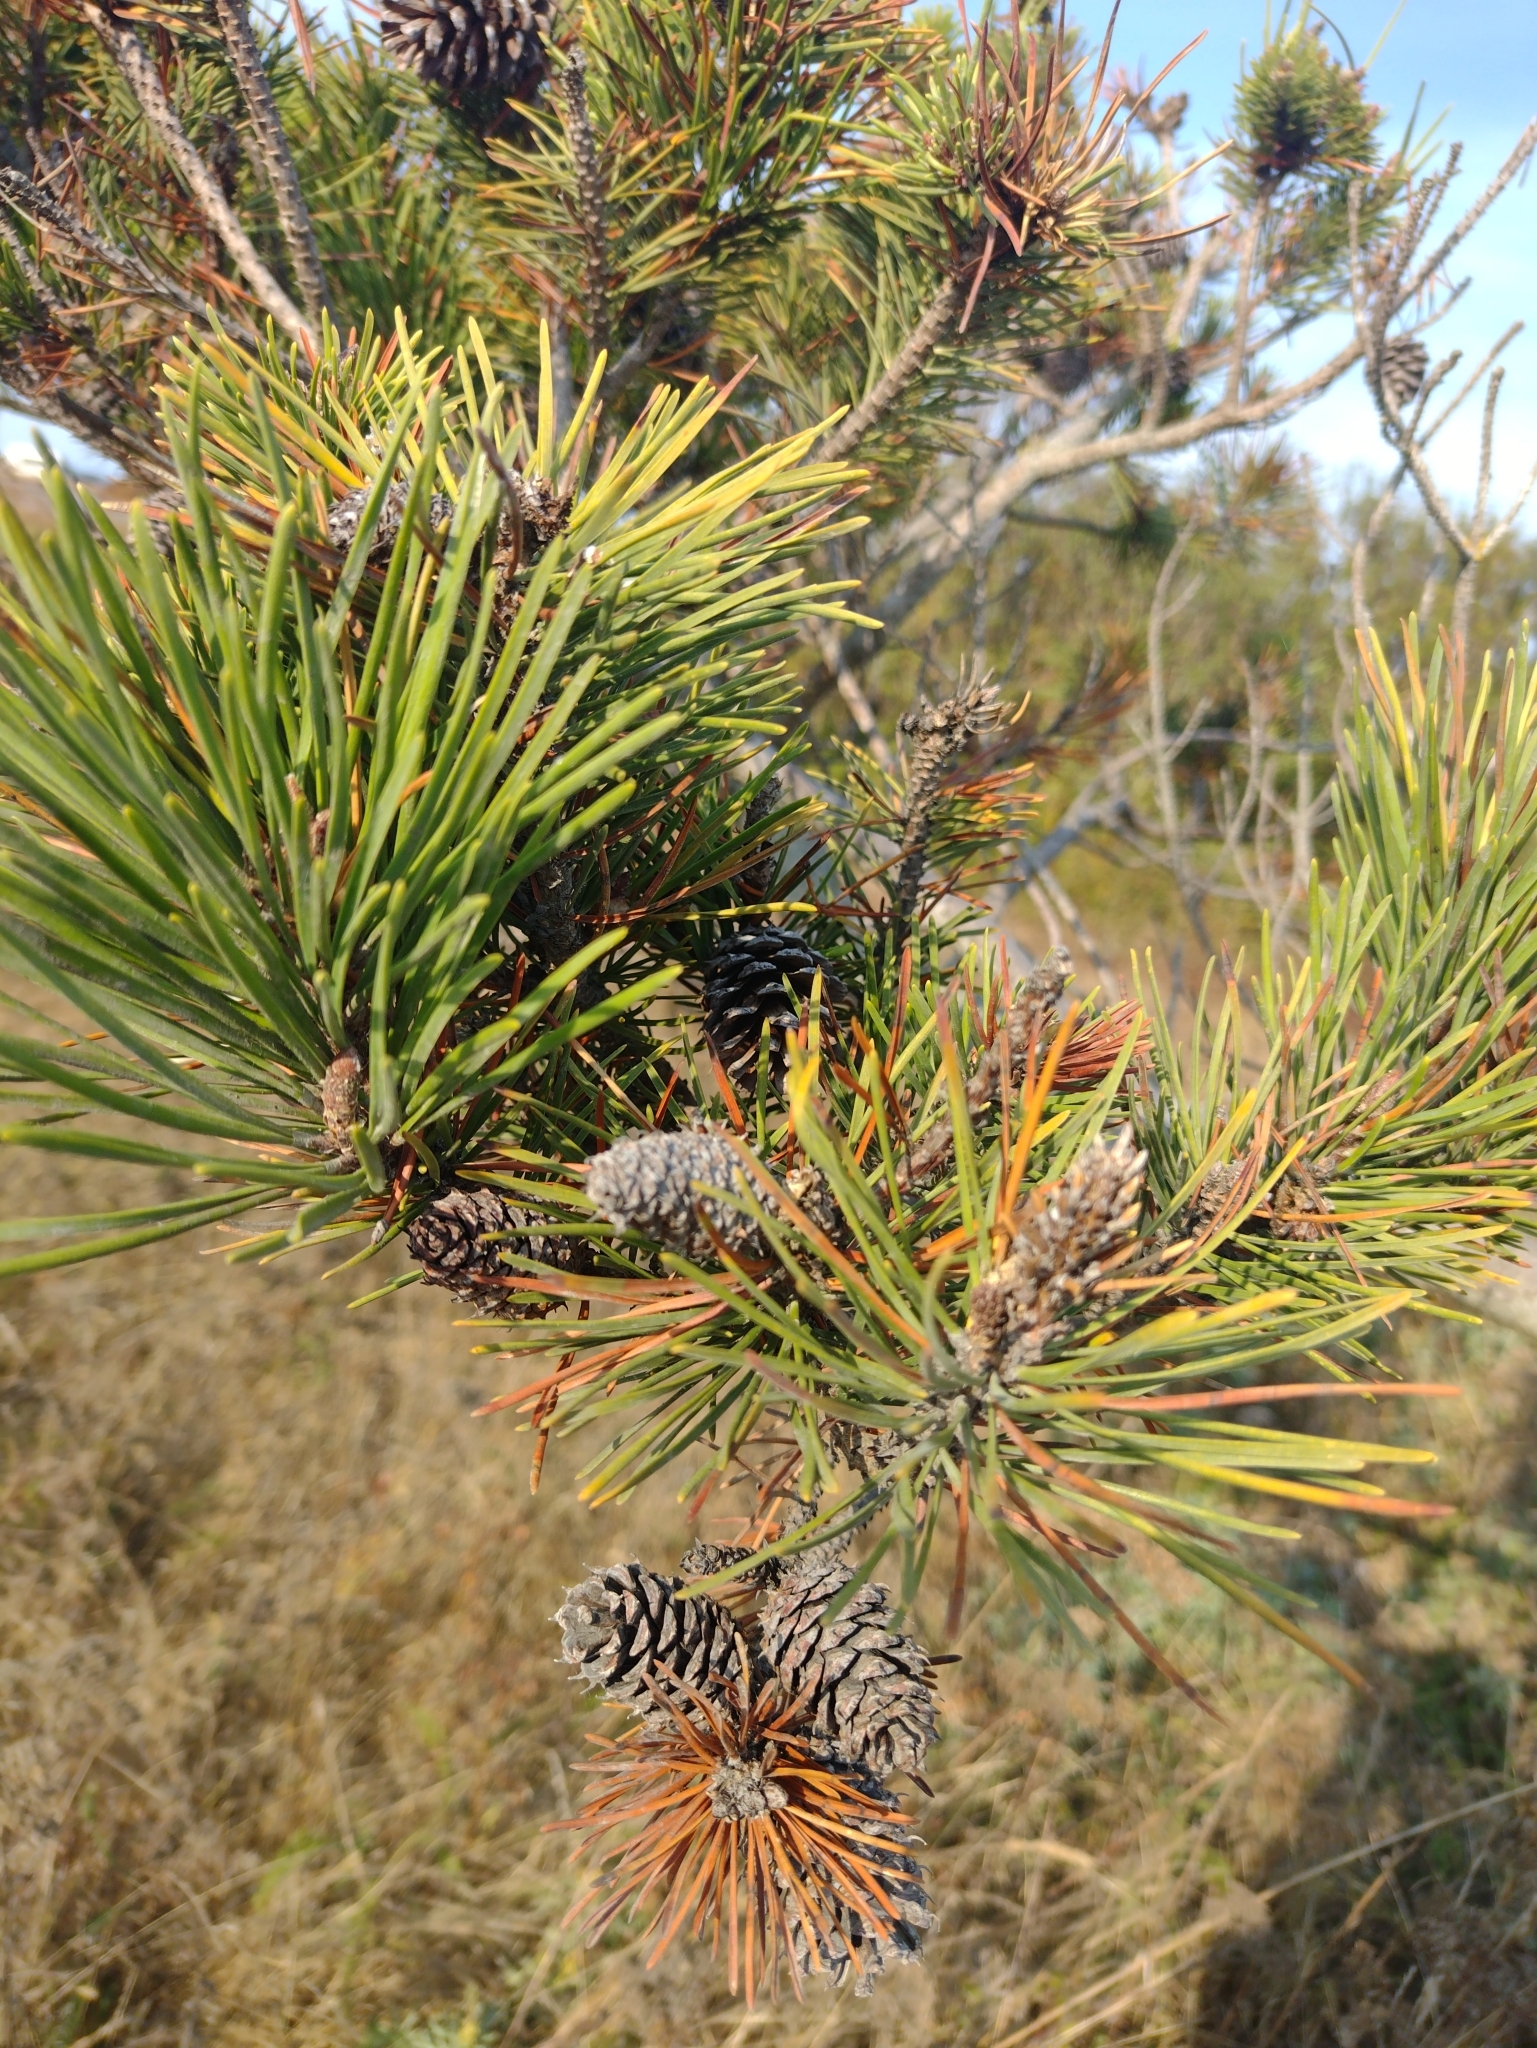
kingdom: Plantae
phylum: Tracheophyta
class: Pinopsida
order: Pinales
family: Pinaceae
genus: Pinus
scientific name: Pinus contorta
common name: Lodgepole pine
